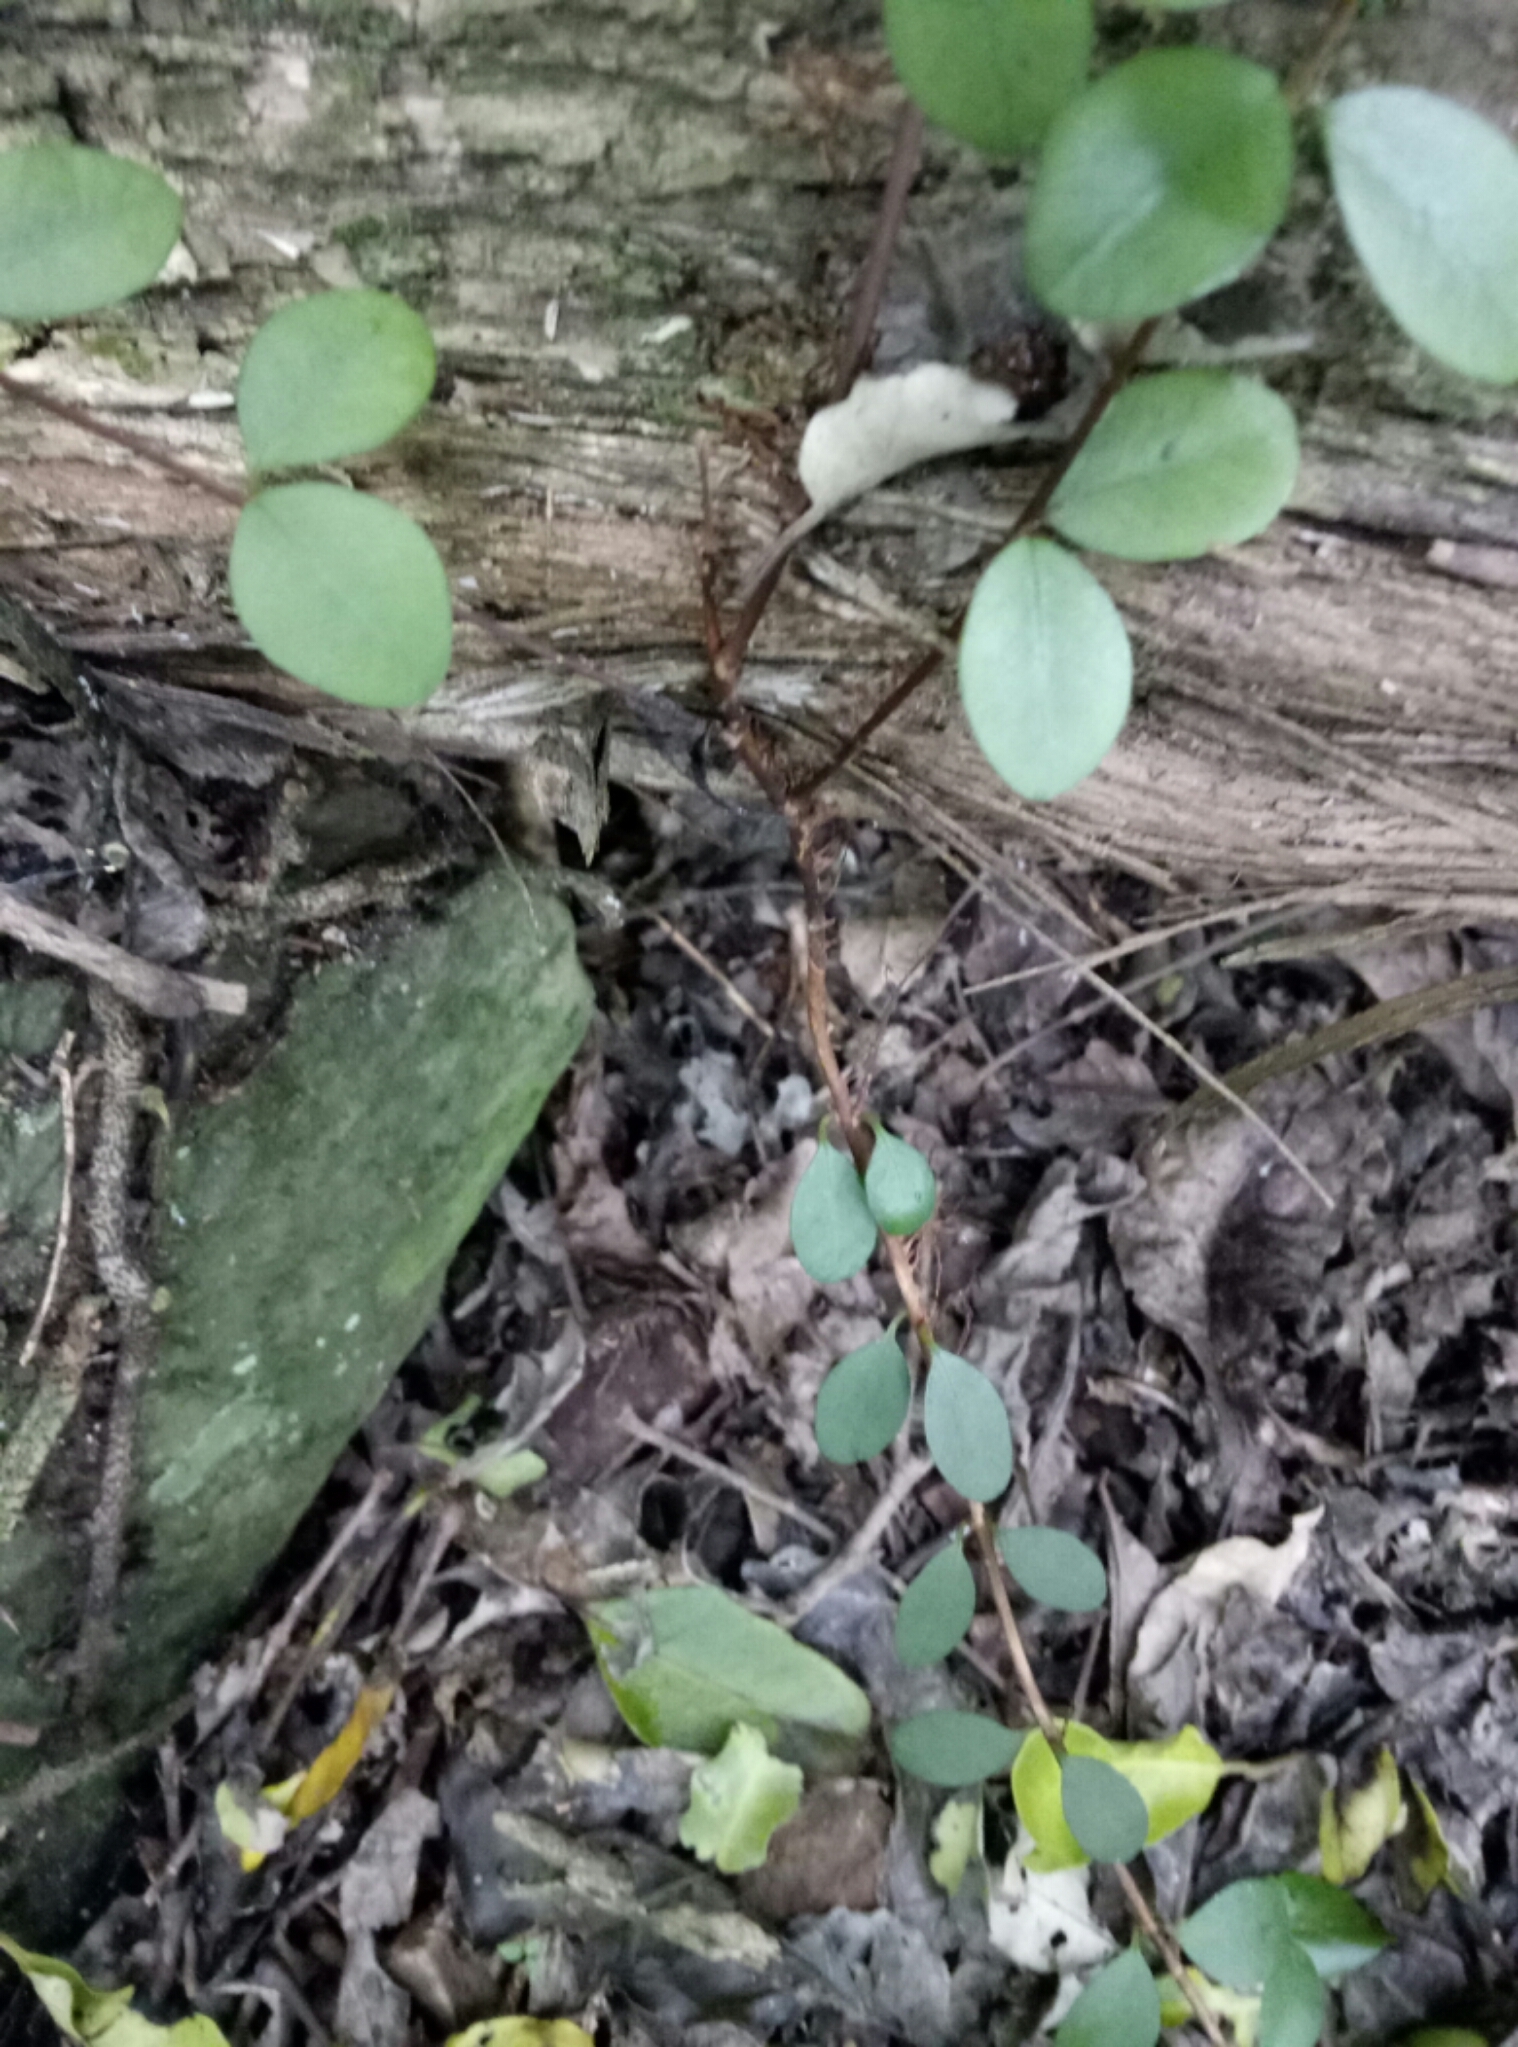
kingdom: Plantae
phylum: Tracheophyta
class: Magnoliopsida
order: Myrtales
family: Myrtaceae
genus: Metrosideros
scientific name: Metrosideros fulgens
